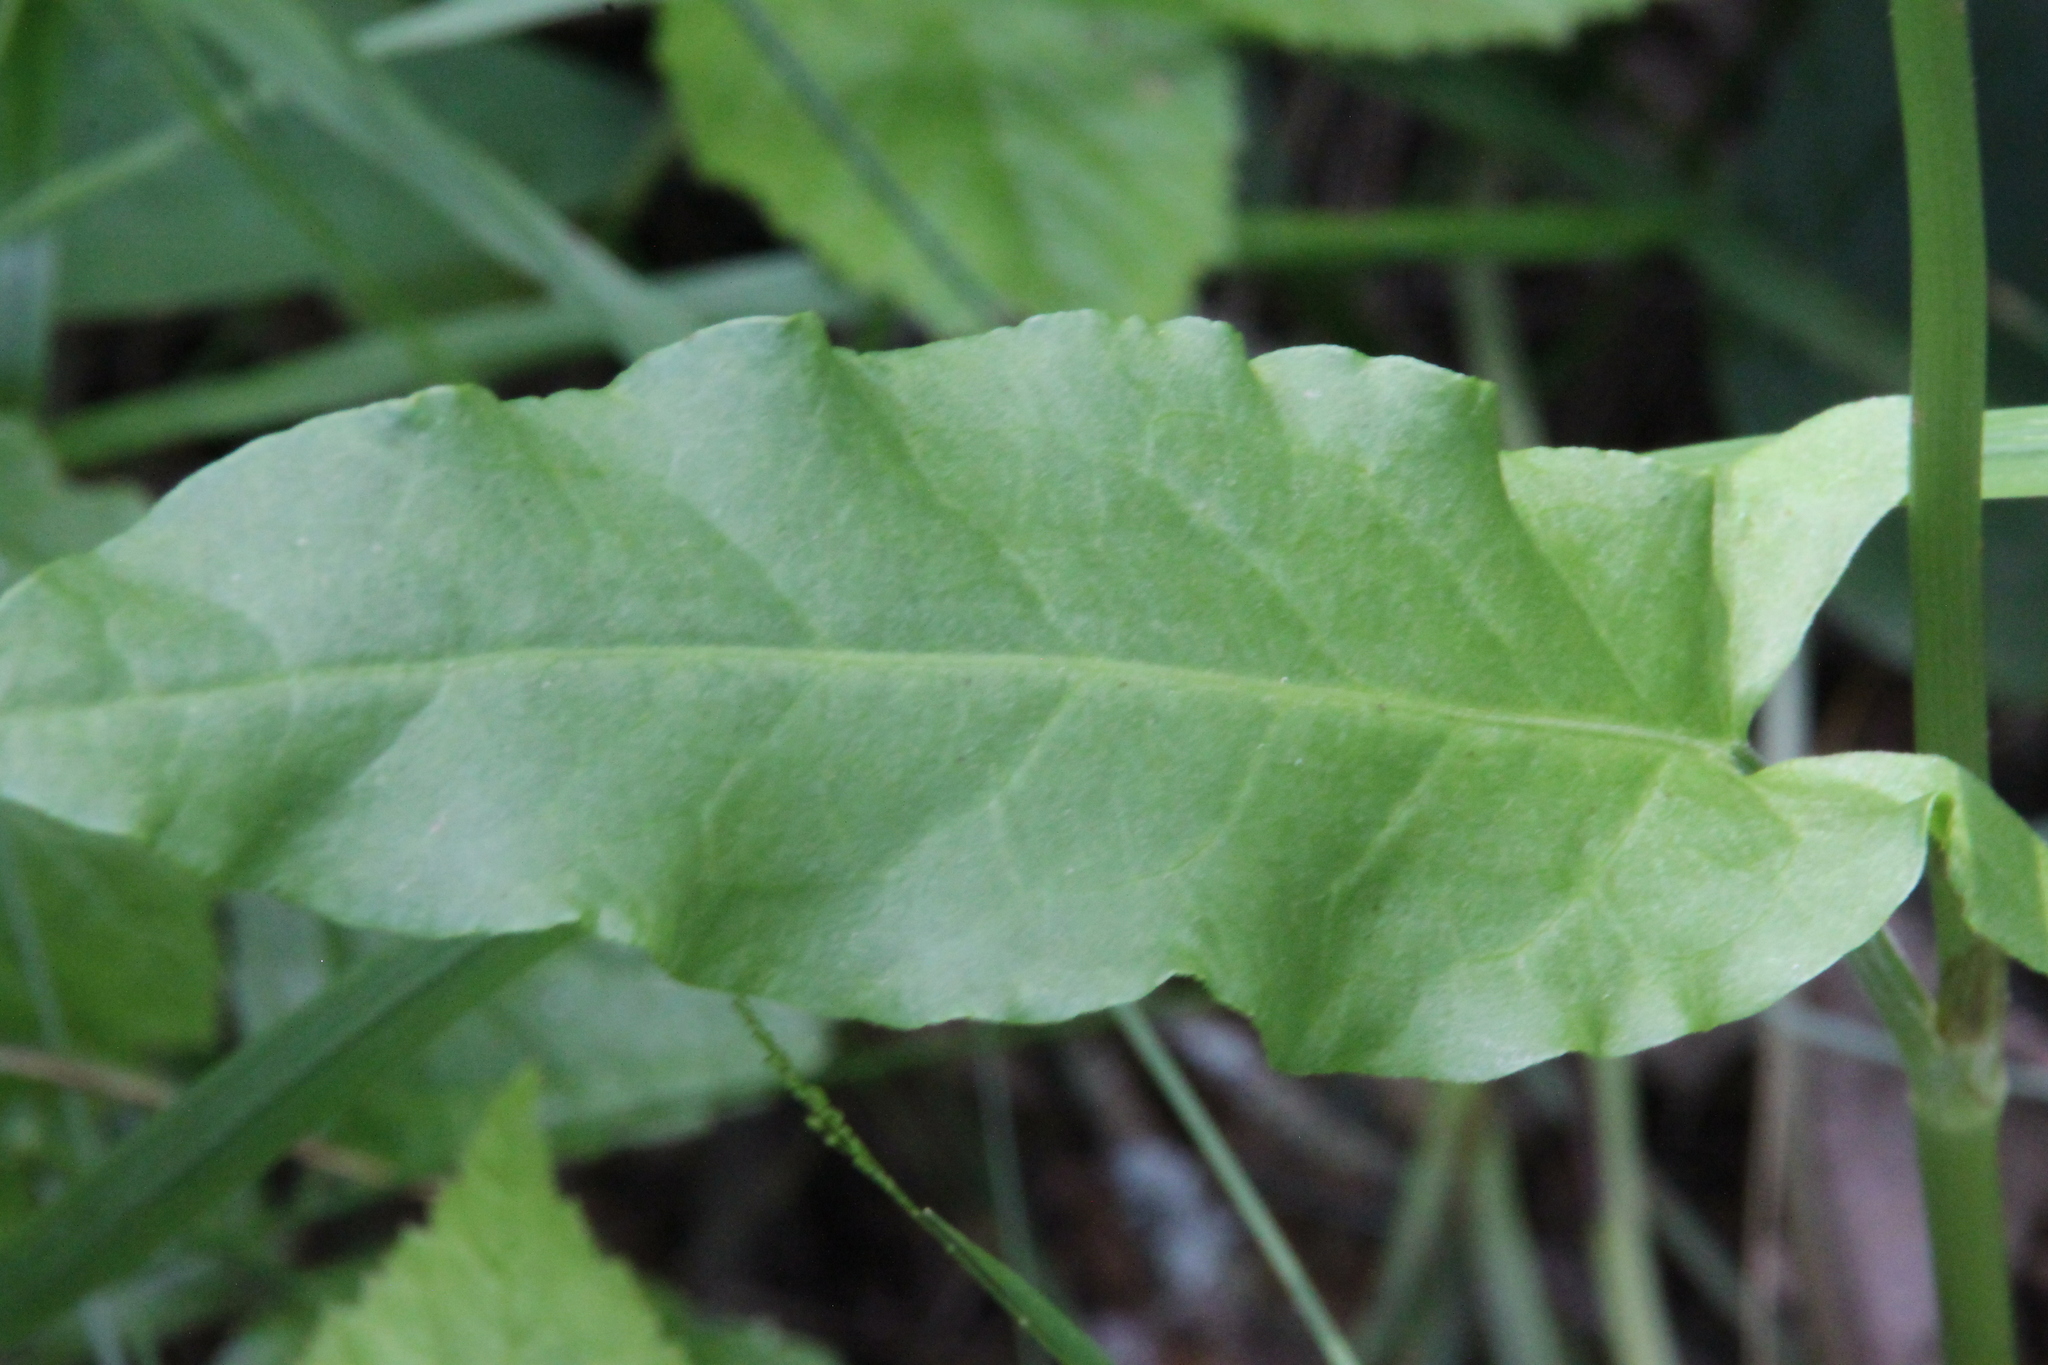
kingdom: Plantae
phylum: Tracheophyta
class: Magnoliopsida
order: Caryophyllales
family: Polygonaceae
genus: Rumex
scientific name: Rumex thyrsiflorus
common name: Garden sorrel
